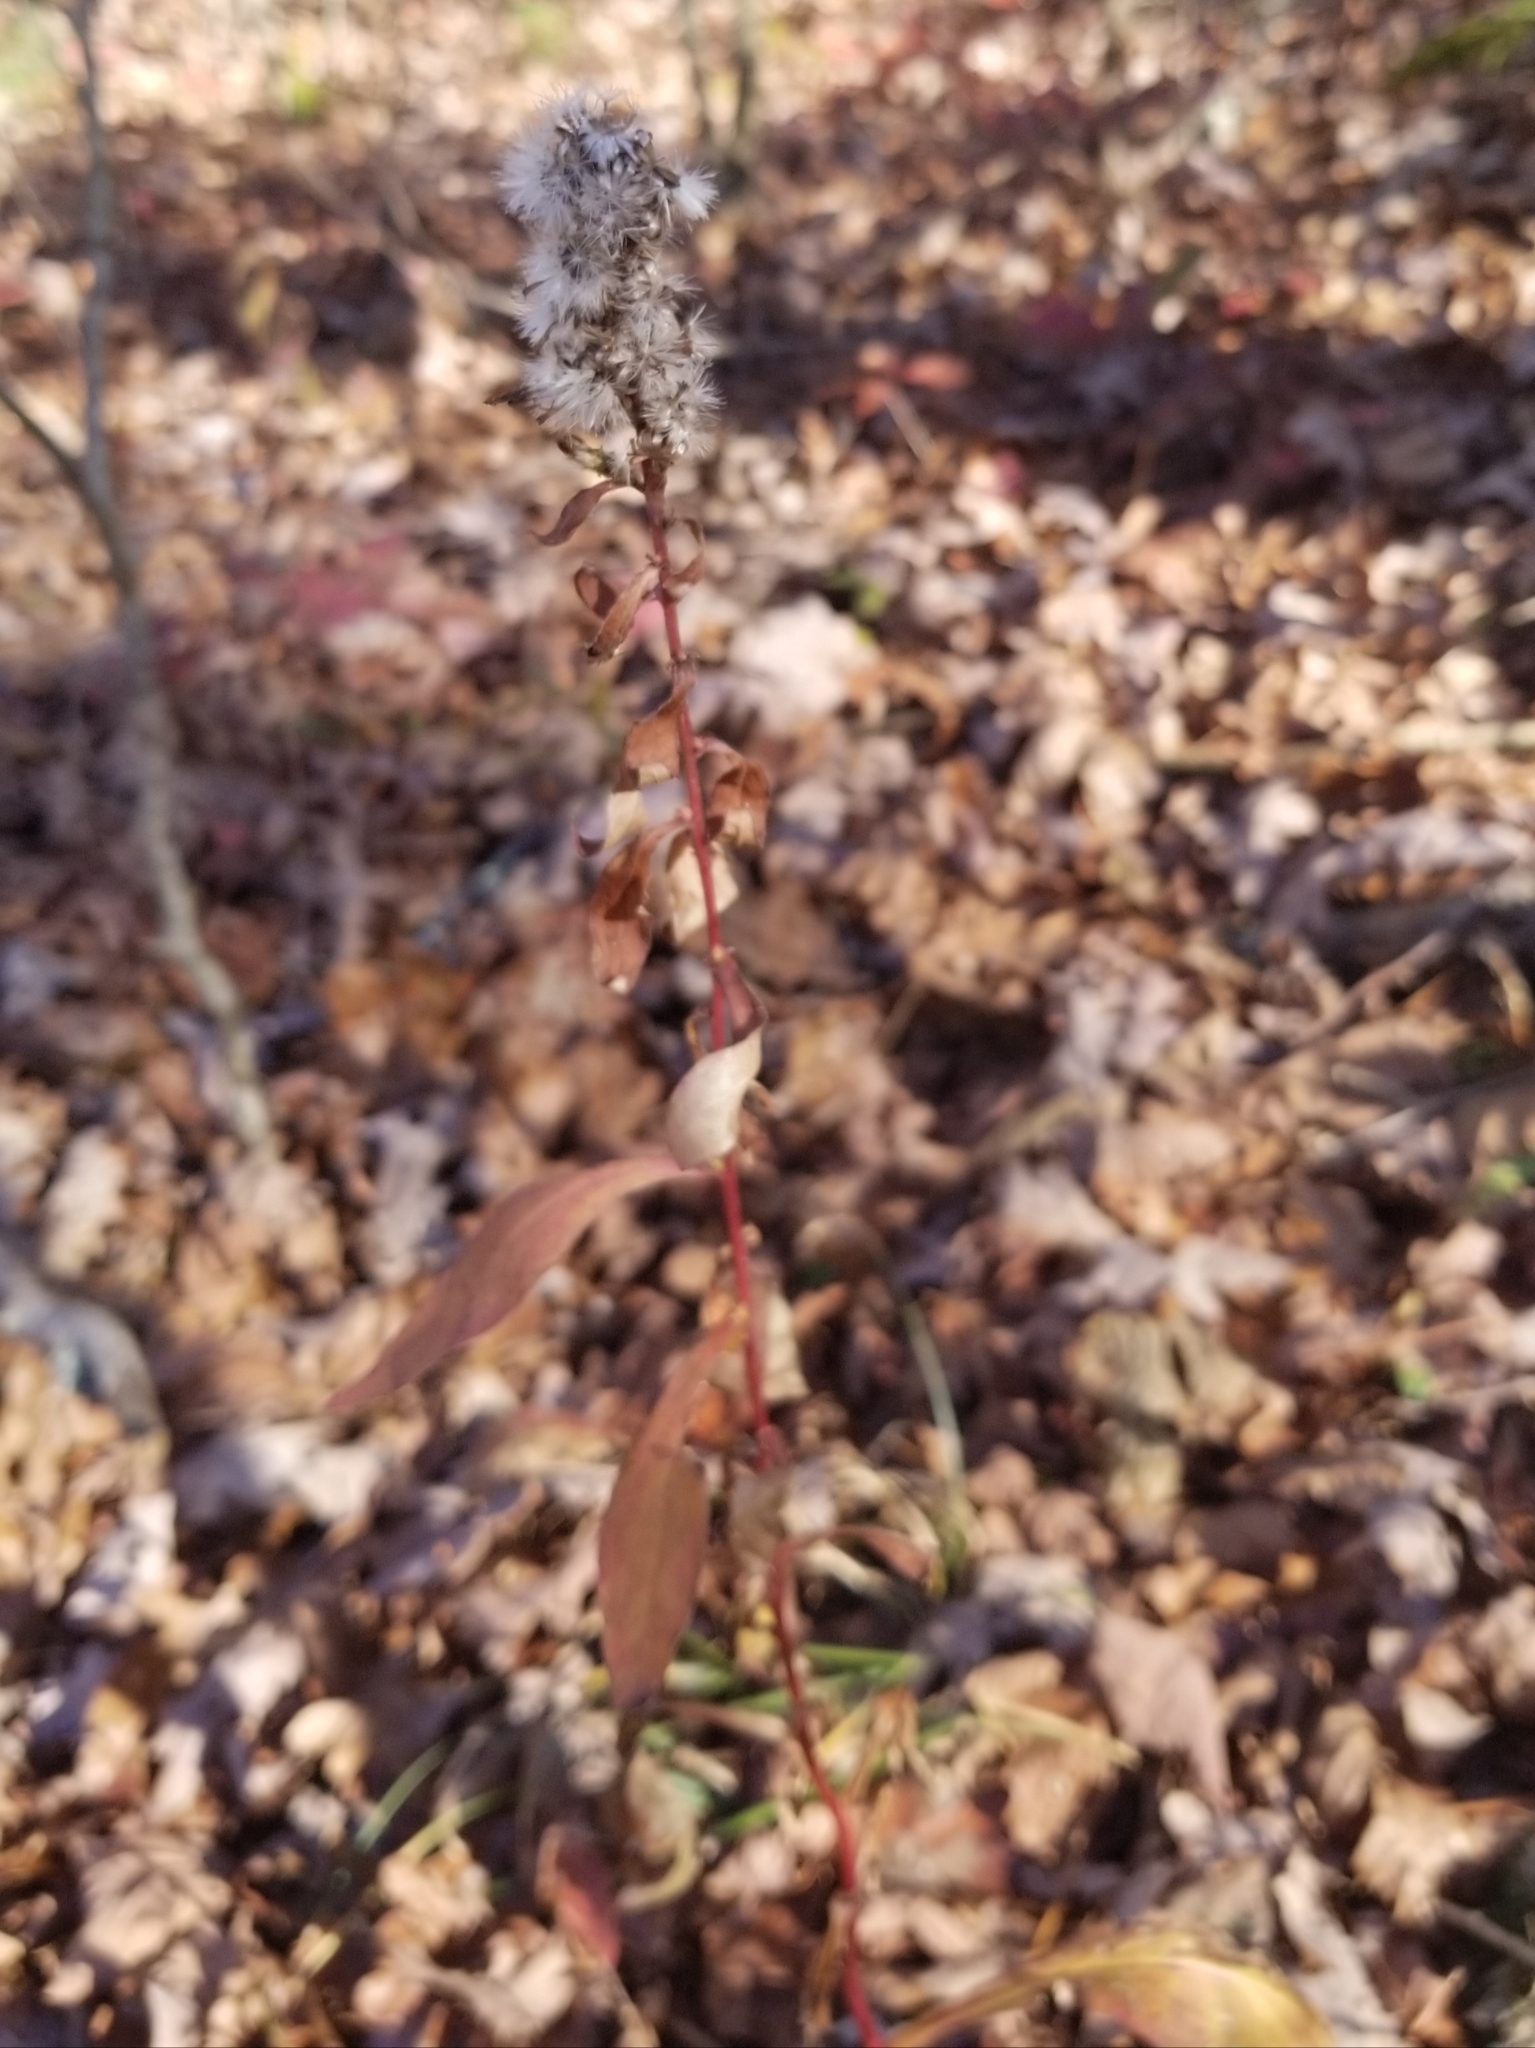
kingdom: Plantae
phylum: Tracheophyta
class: Magnoliopsida
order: Asterales
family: Asteraceae
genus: Solidago
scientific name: Solidago squarrosa
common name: Stout goldenrod
